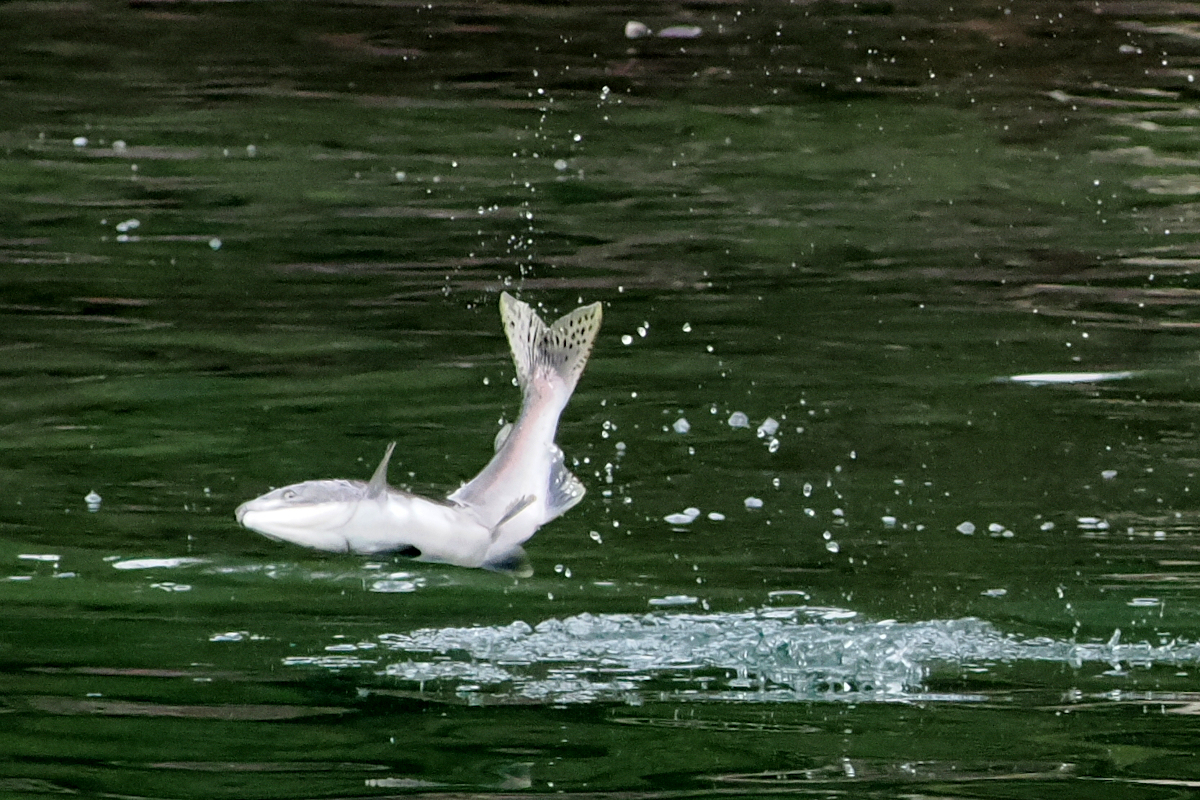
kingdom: Animalia
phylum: Chordata
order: Salmoniformes
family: Salmonidae
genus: Oncorhynchus
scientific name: Oncorhynchus gorbuscha
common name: Humpback salmon
